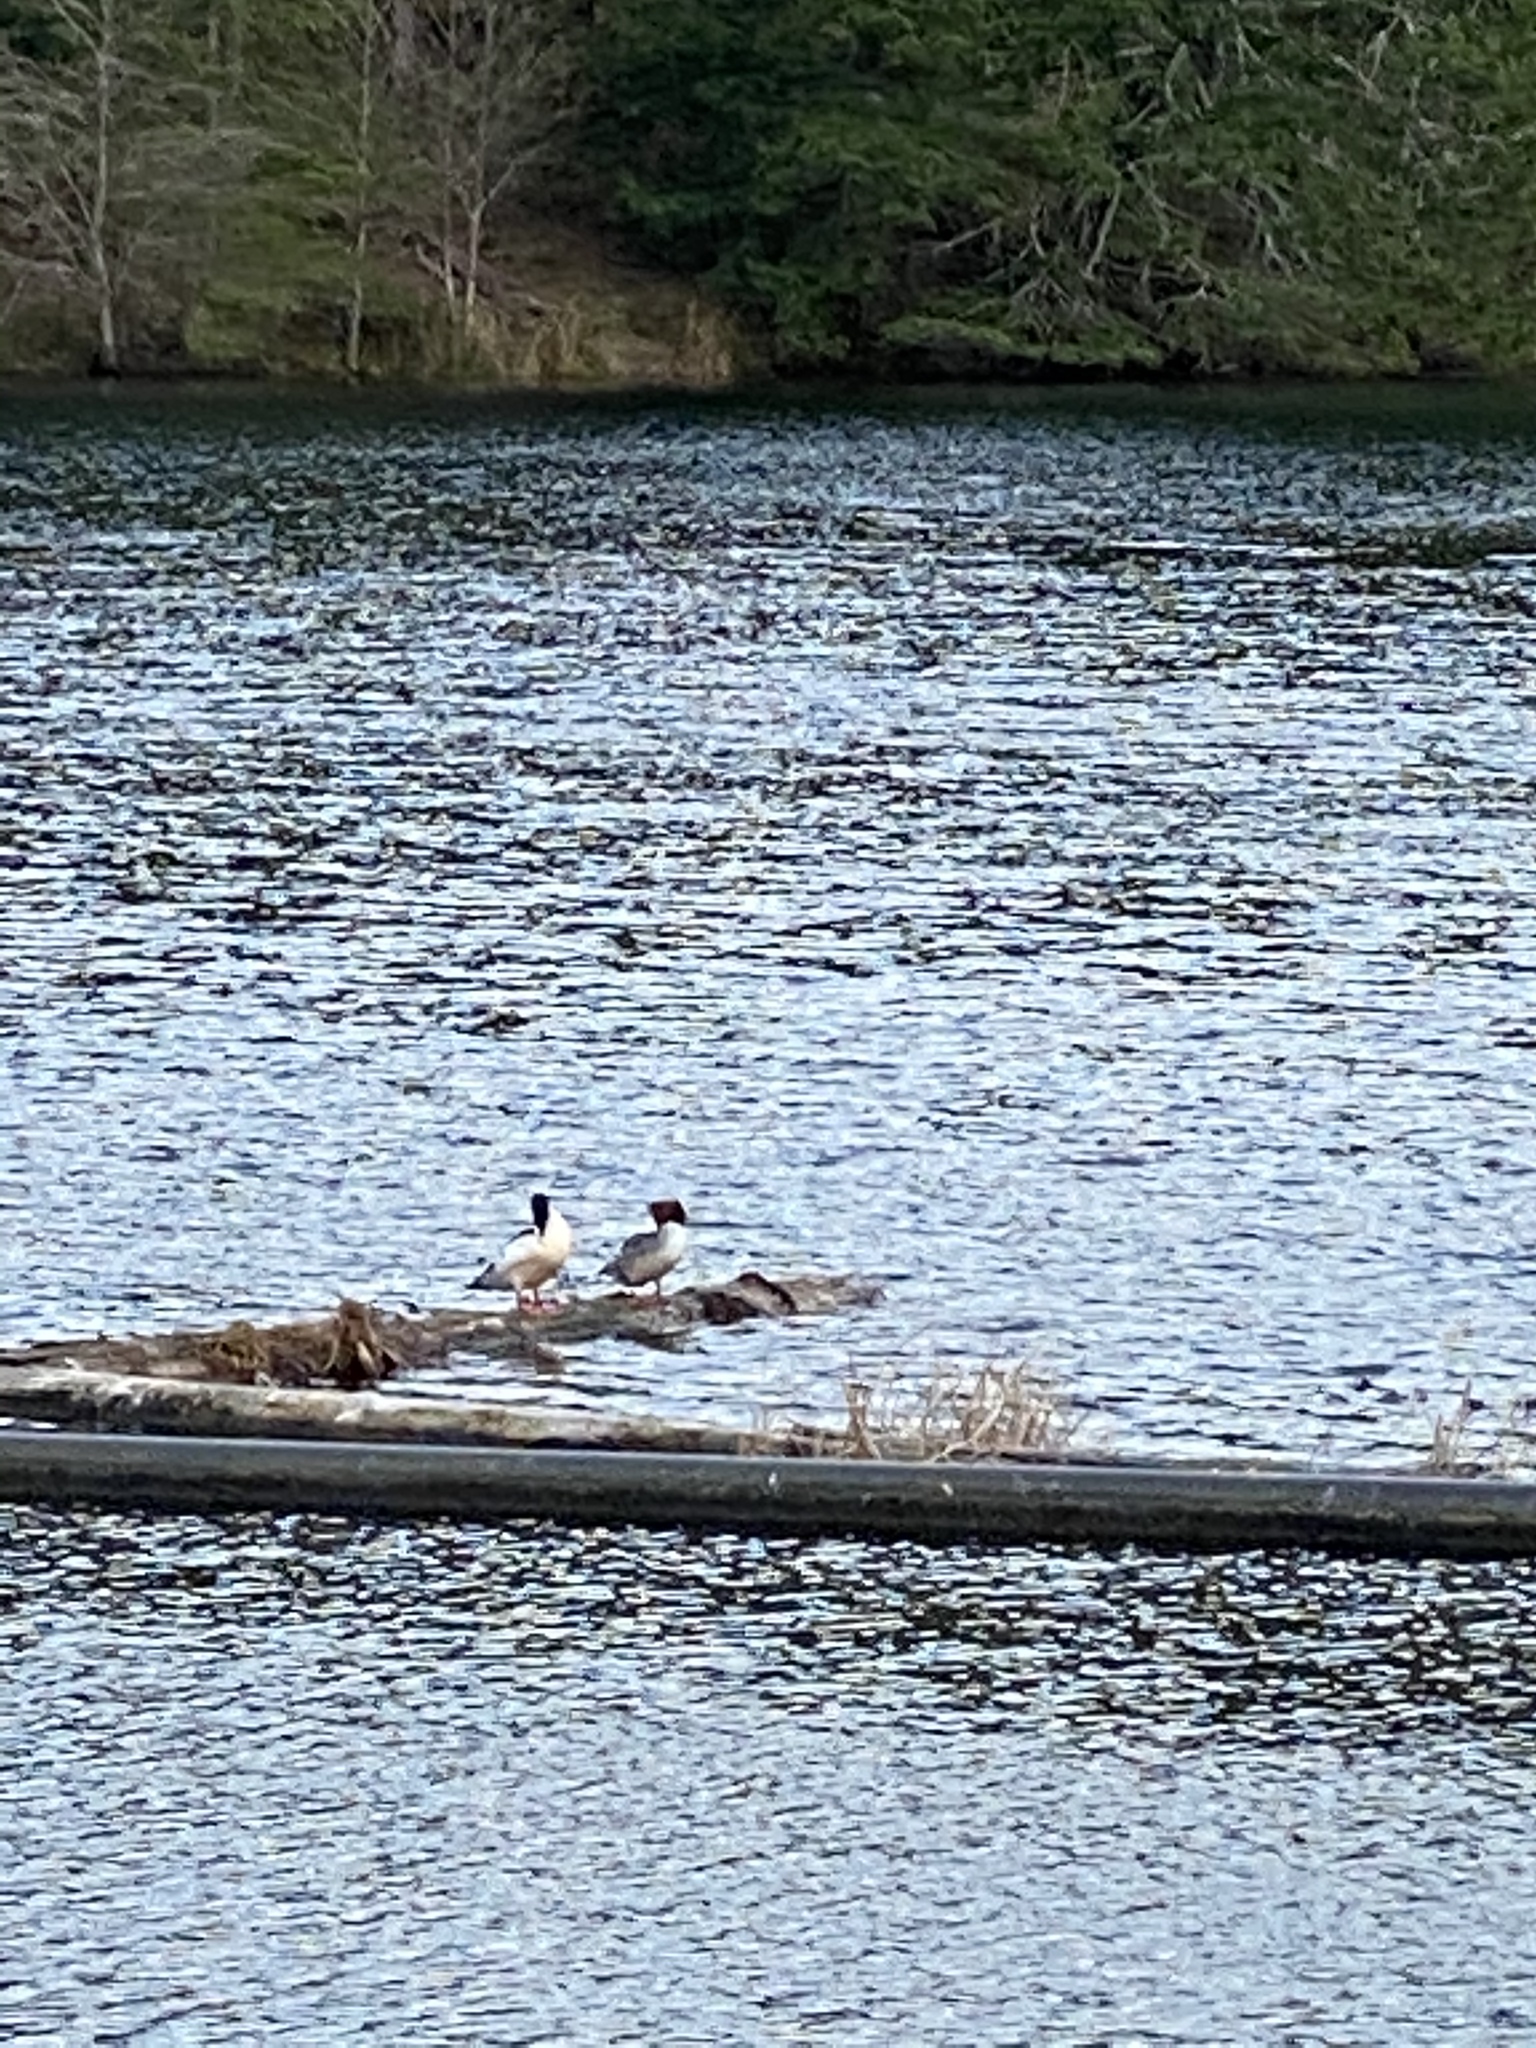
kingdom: Animalia
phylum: Chordata
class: Aves
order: Anseriformes
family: Anatidae
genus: Mergus
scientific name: Mergus merganser
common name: Common merganser
